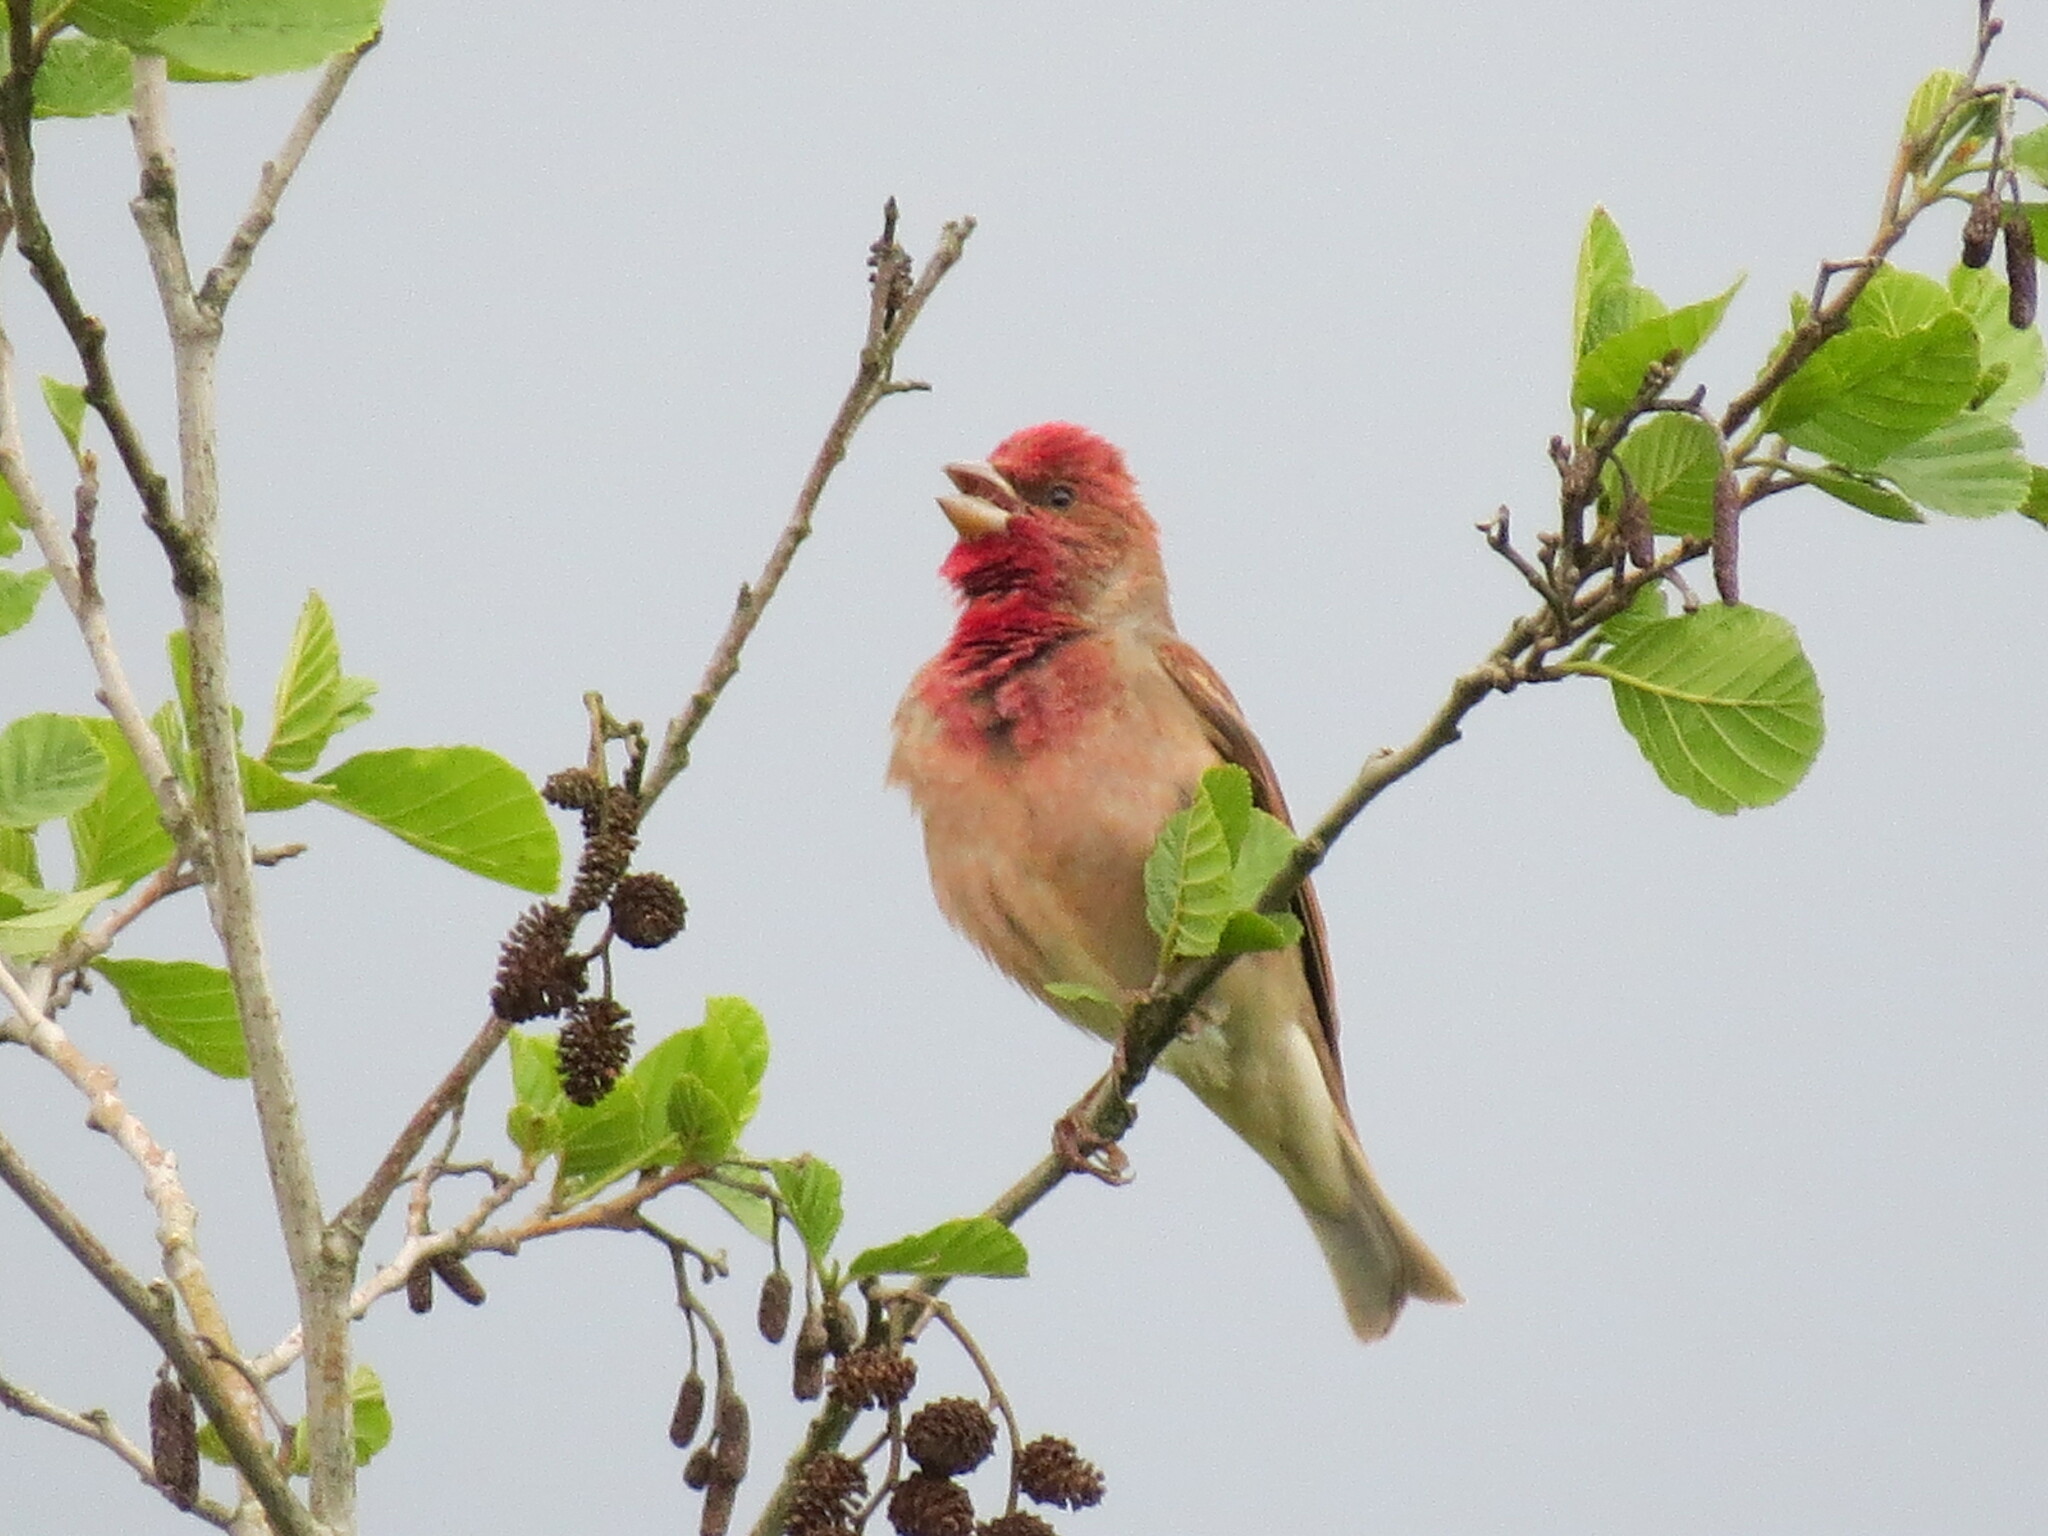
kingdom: Animalia
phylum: Chordata
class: Aves
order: Passeriformes
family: Fringillidae
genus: Carpodacus
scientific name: Carpodacus erythrinus
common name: Common rosefinch
